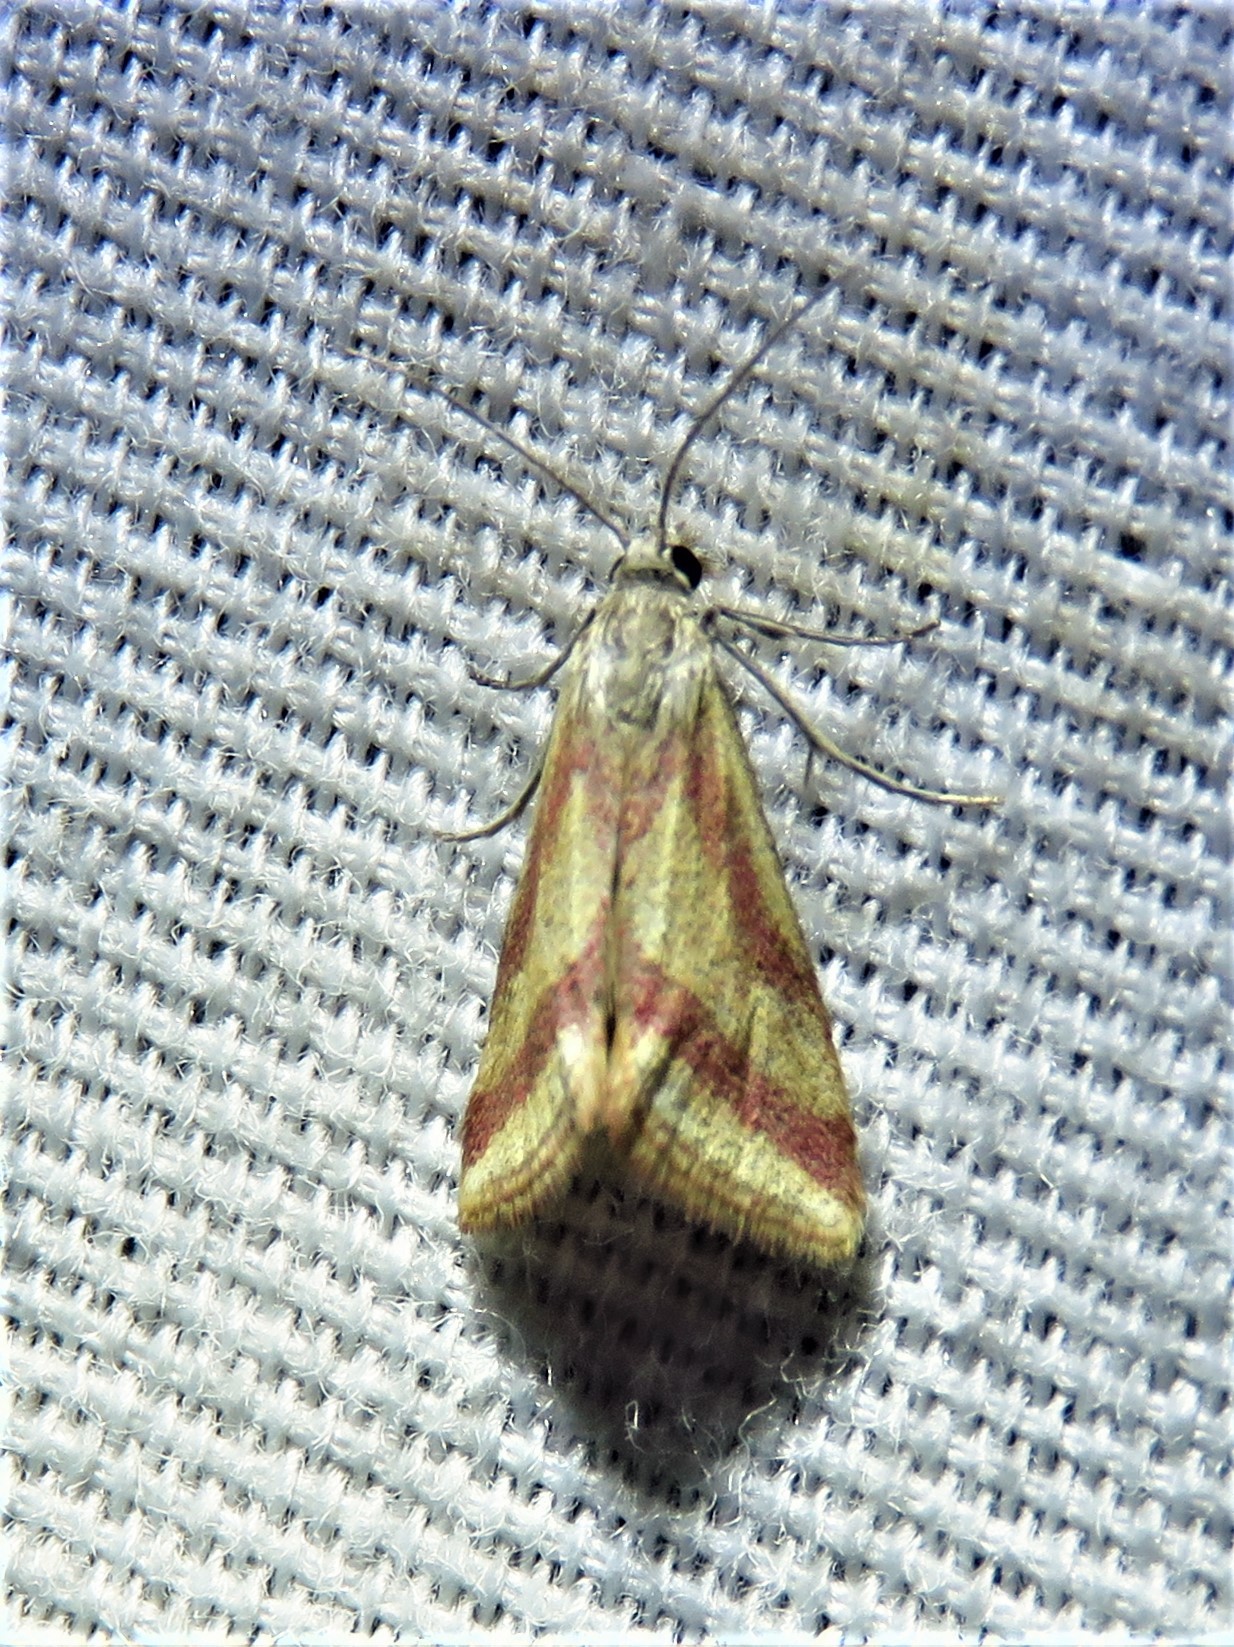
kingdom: Animalia
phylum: Arthropoda
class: Insecta
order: Lepidoptera
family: Crambidae
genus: Microtheoris
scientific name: Microtheoris vibicalis
